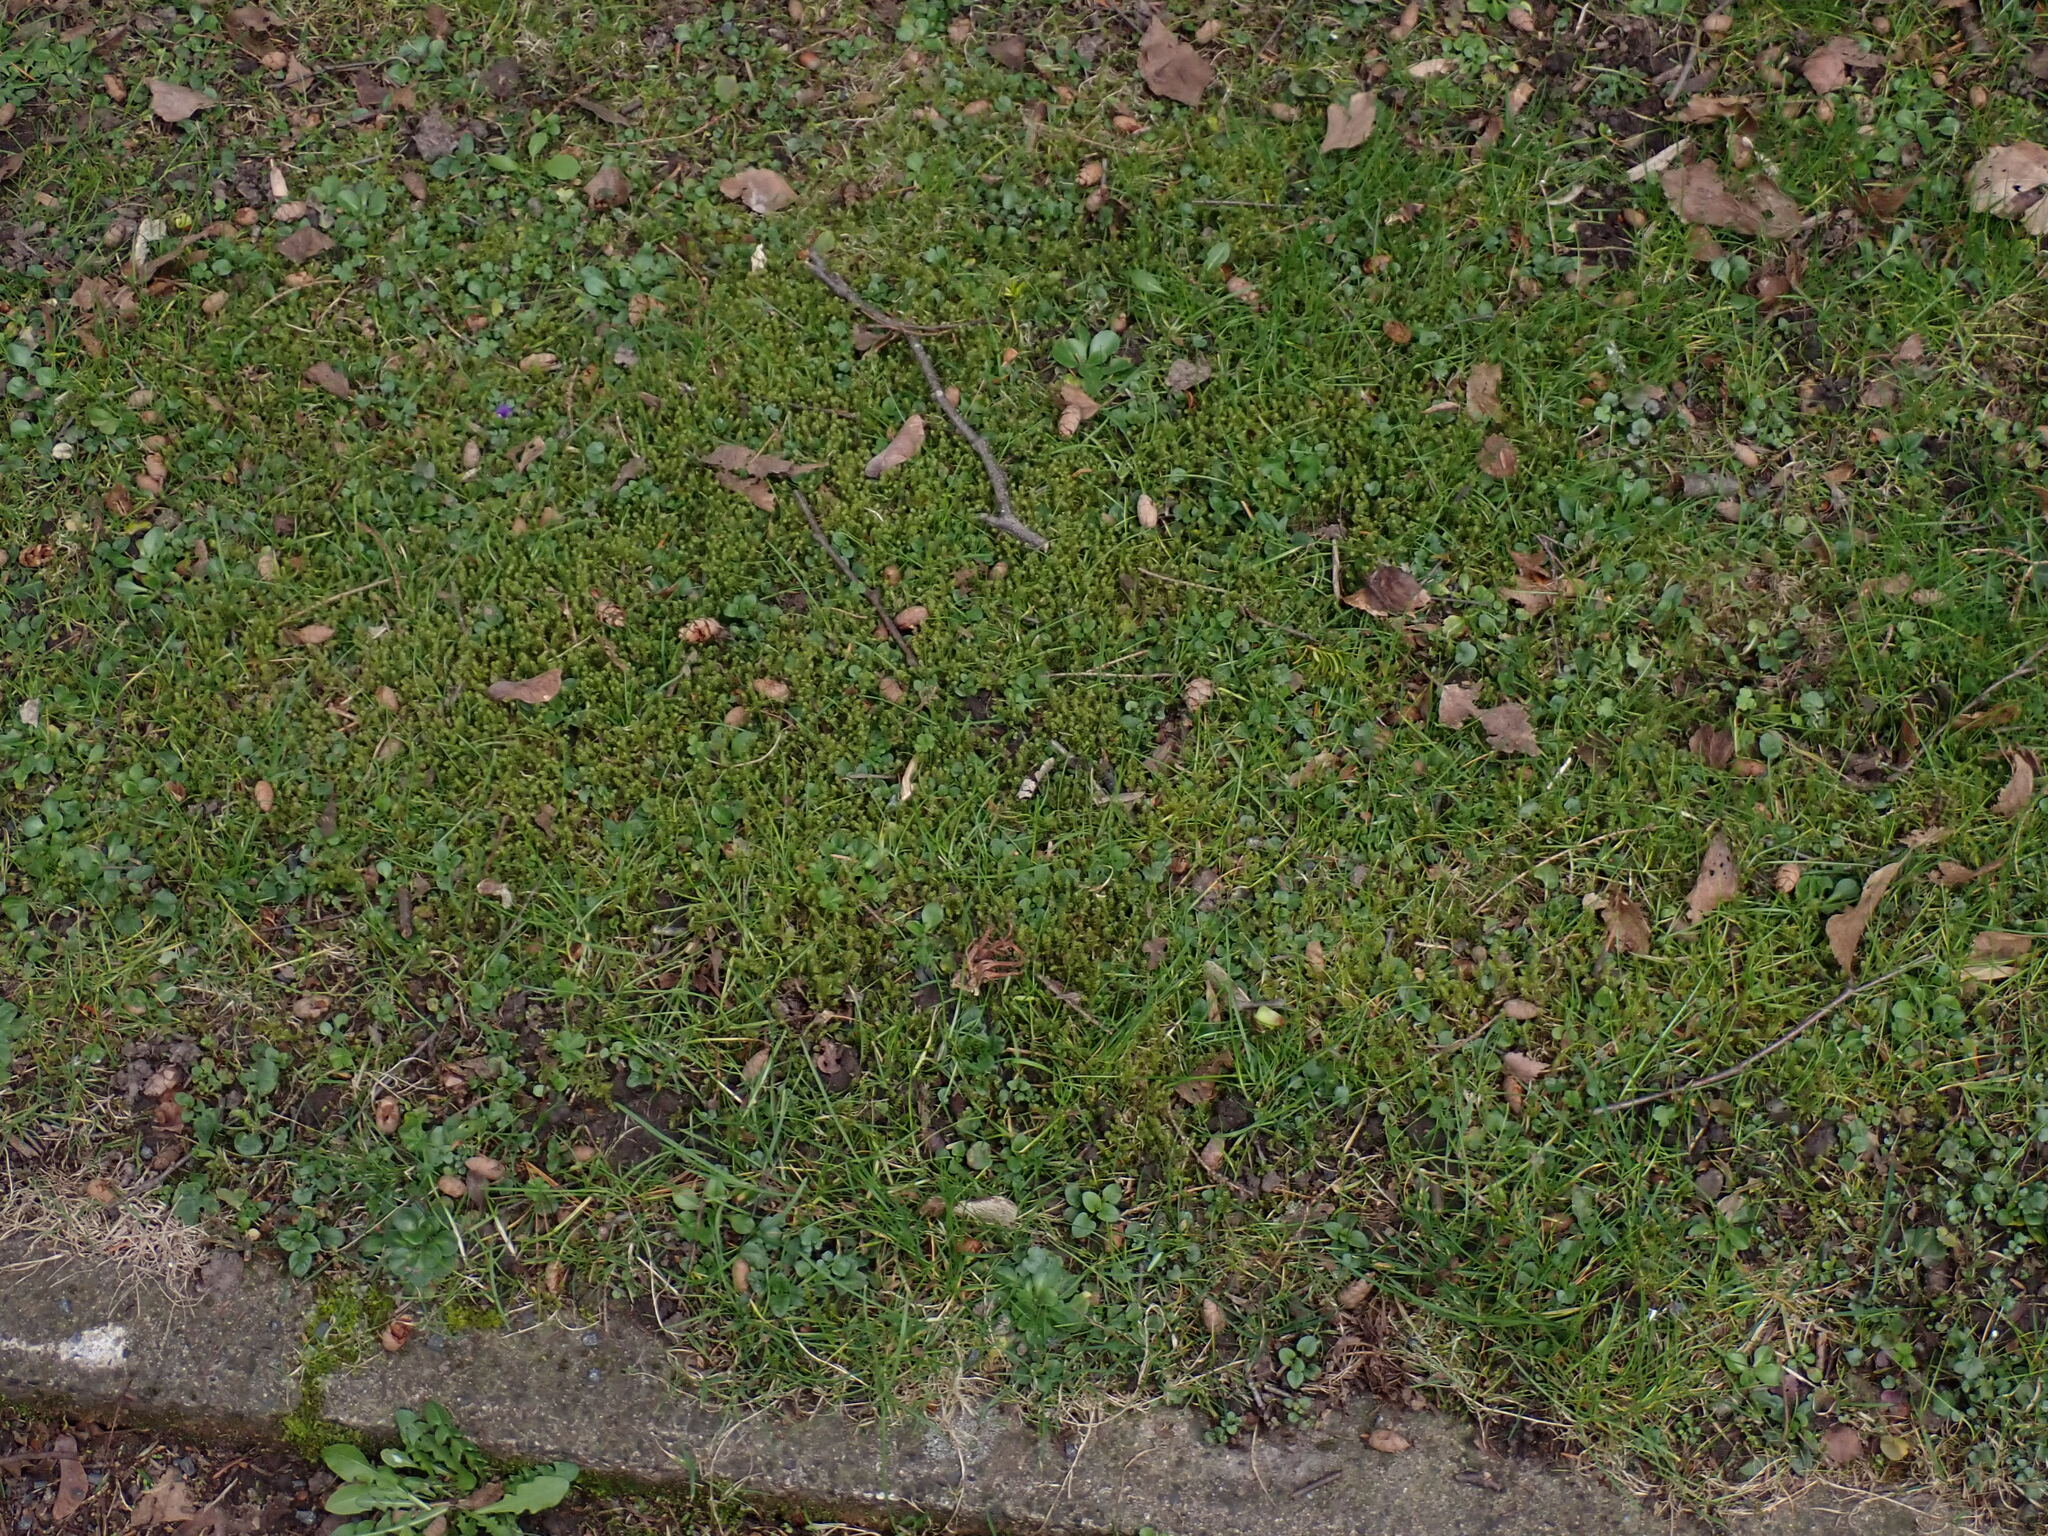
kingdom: Plantae
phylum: Bryophyta
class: Bryopsida
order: Hypnales
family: Hylocomiaceae
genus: Rhytidiadelphus
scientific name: Rhytidiadelphus squarrosus
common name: Springy turf-moss
